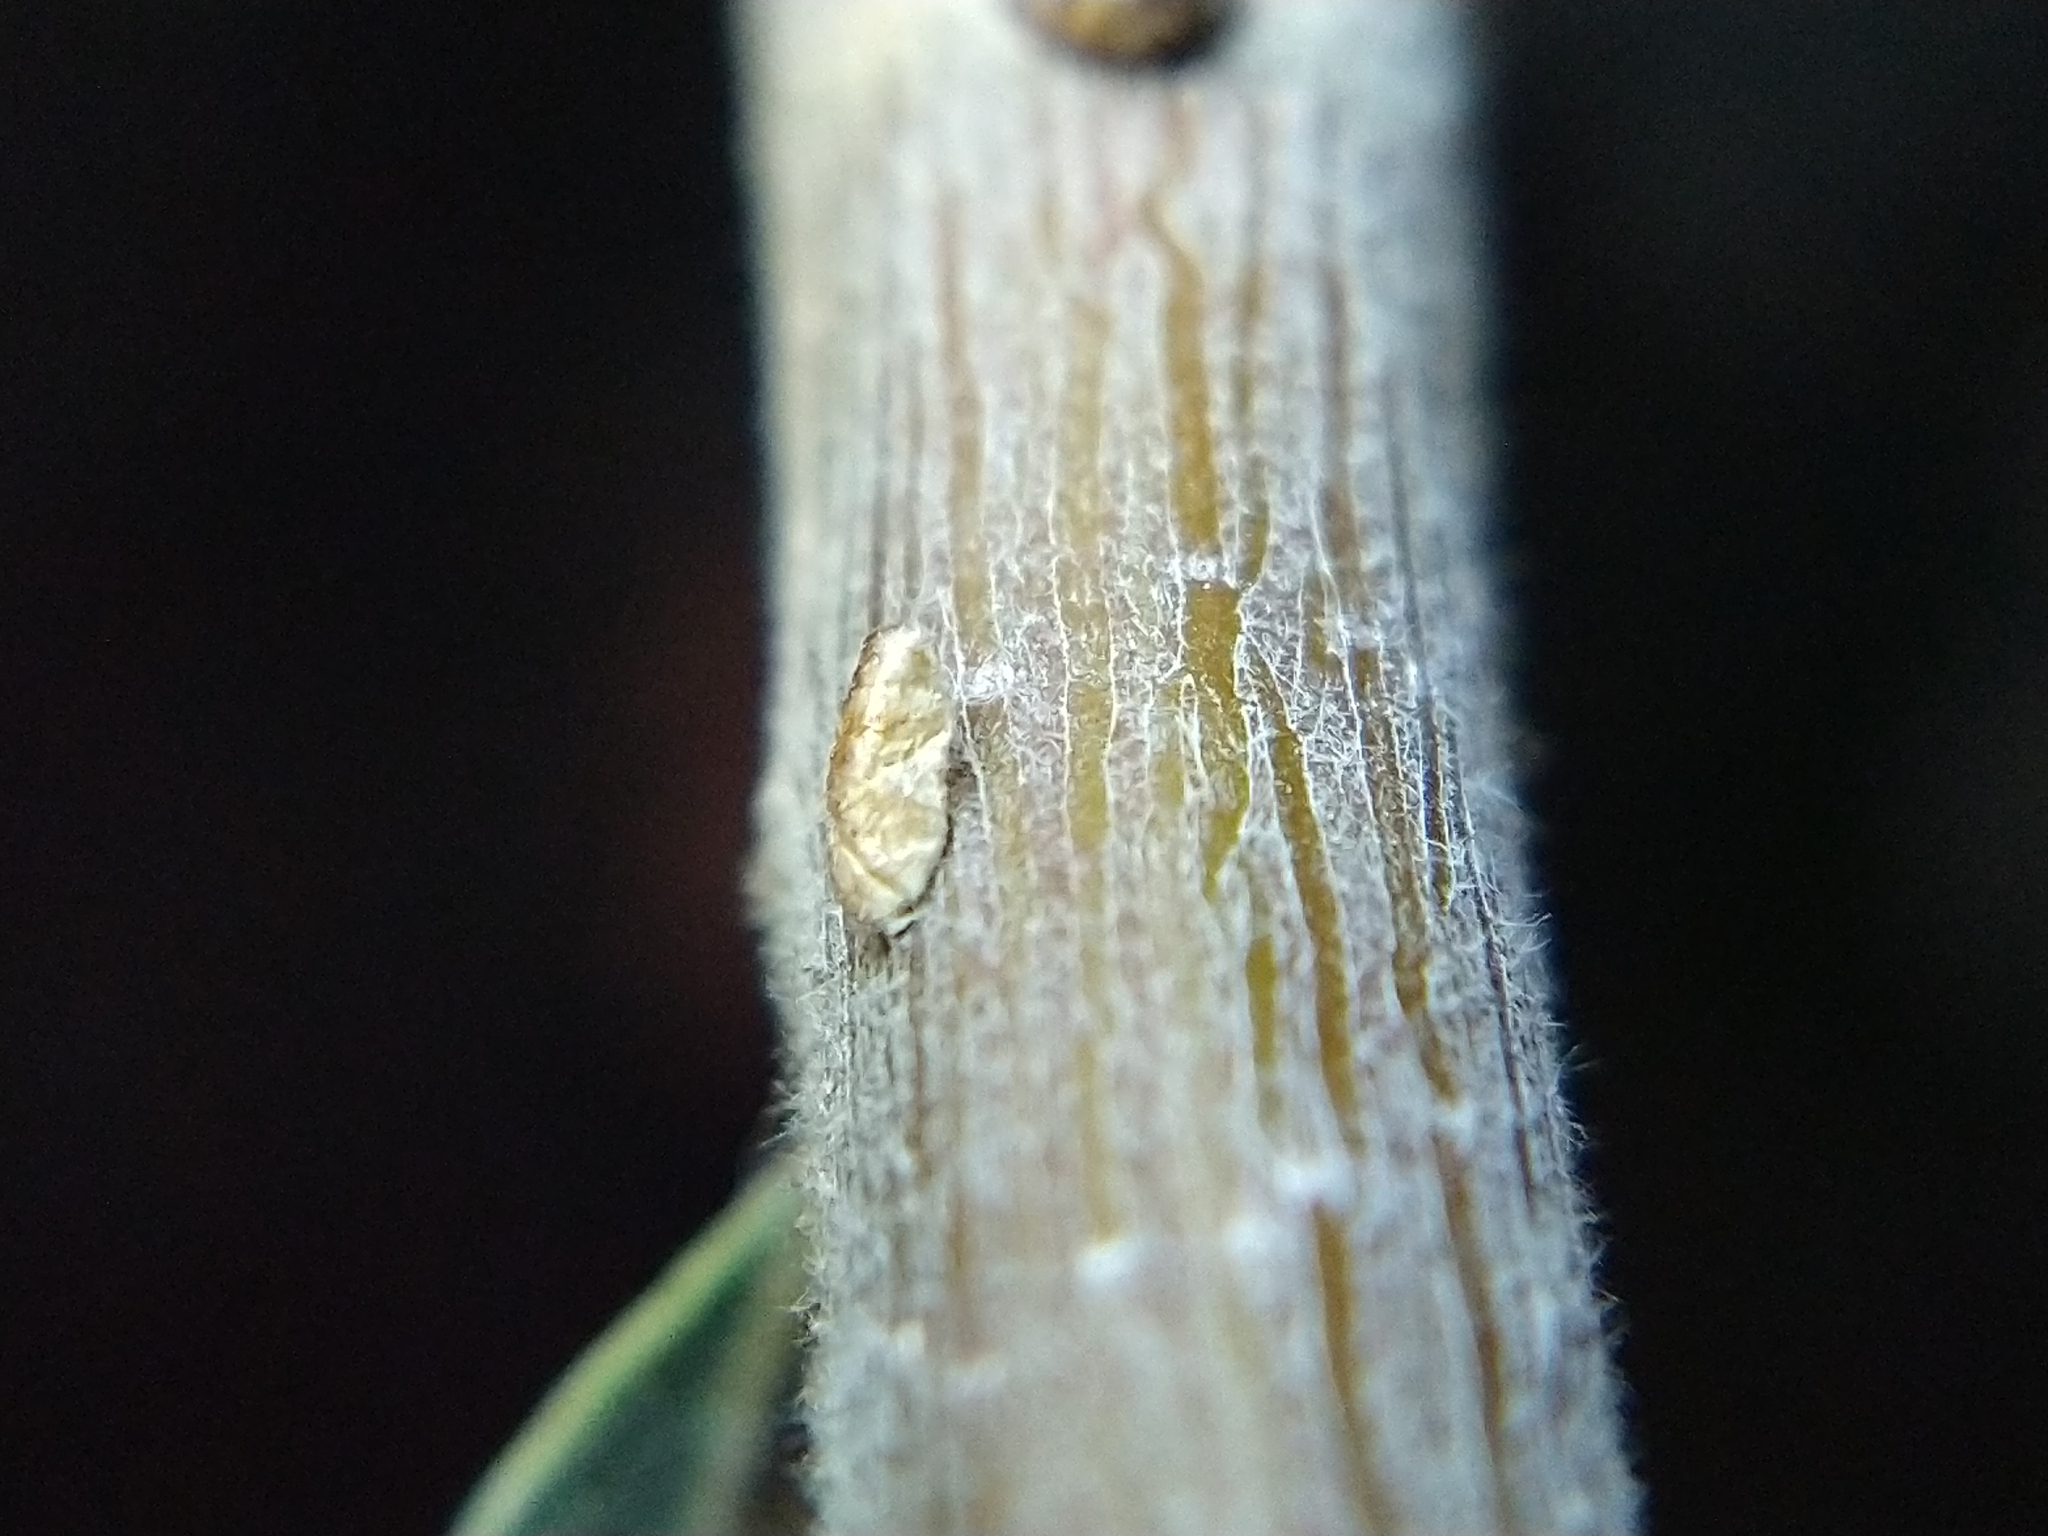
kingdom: Animalia
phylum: Arthropoda
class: Insecta
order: Lepidoptera
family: Heliozelidae
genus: Coptodisca
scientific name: Coptodisca
